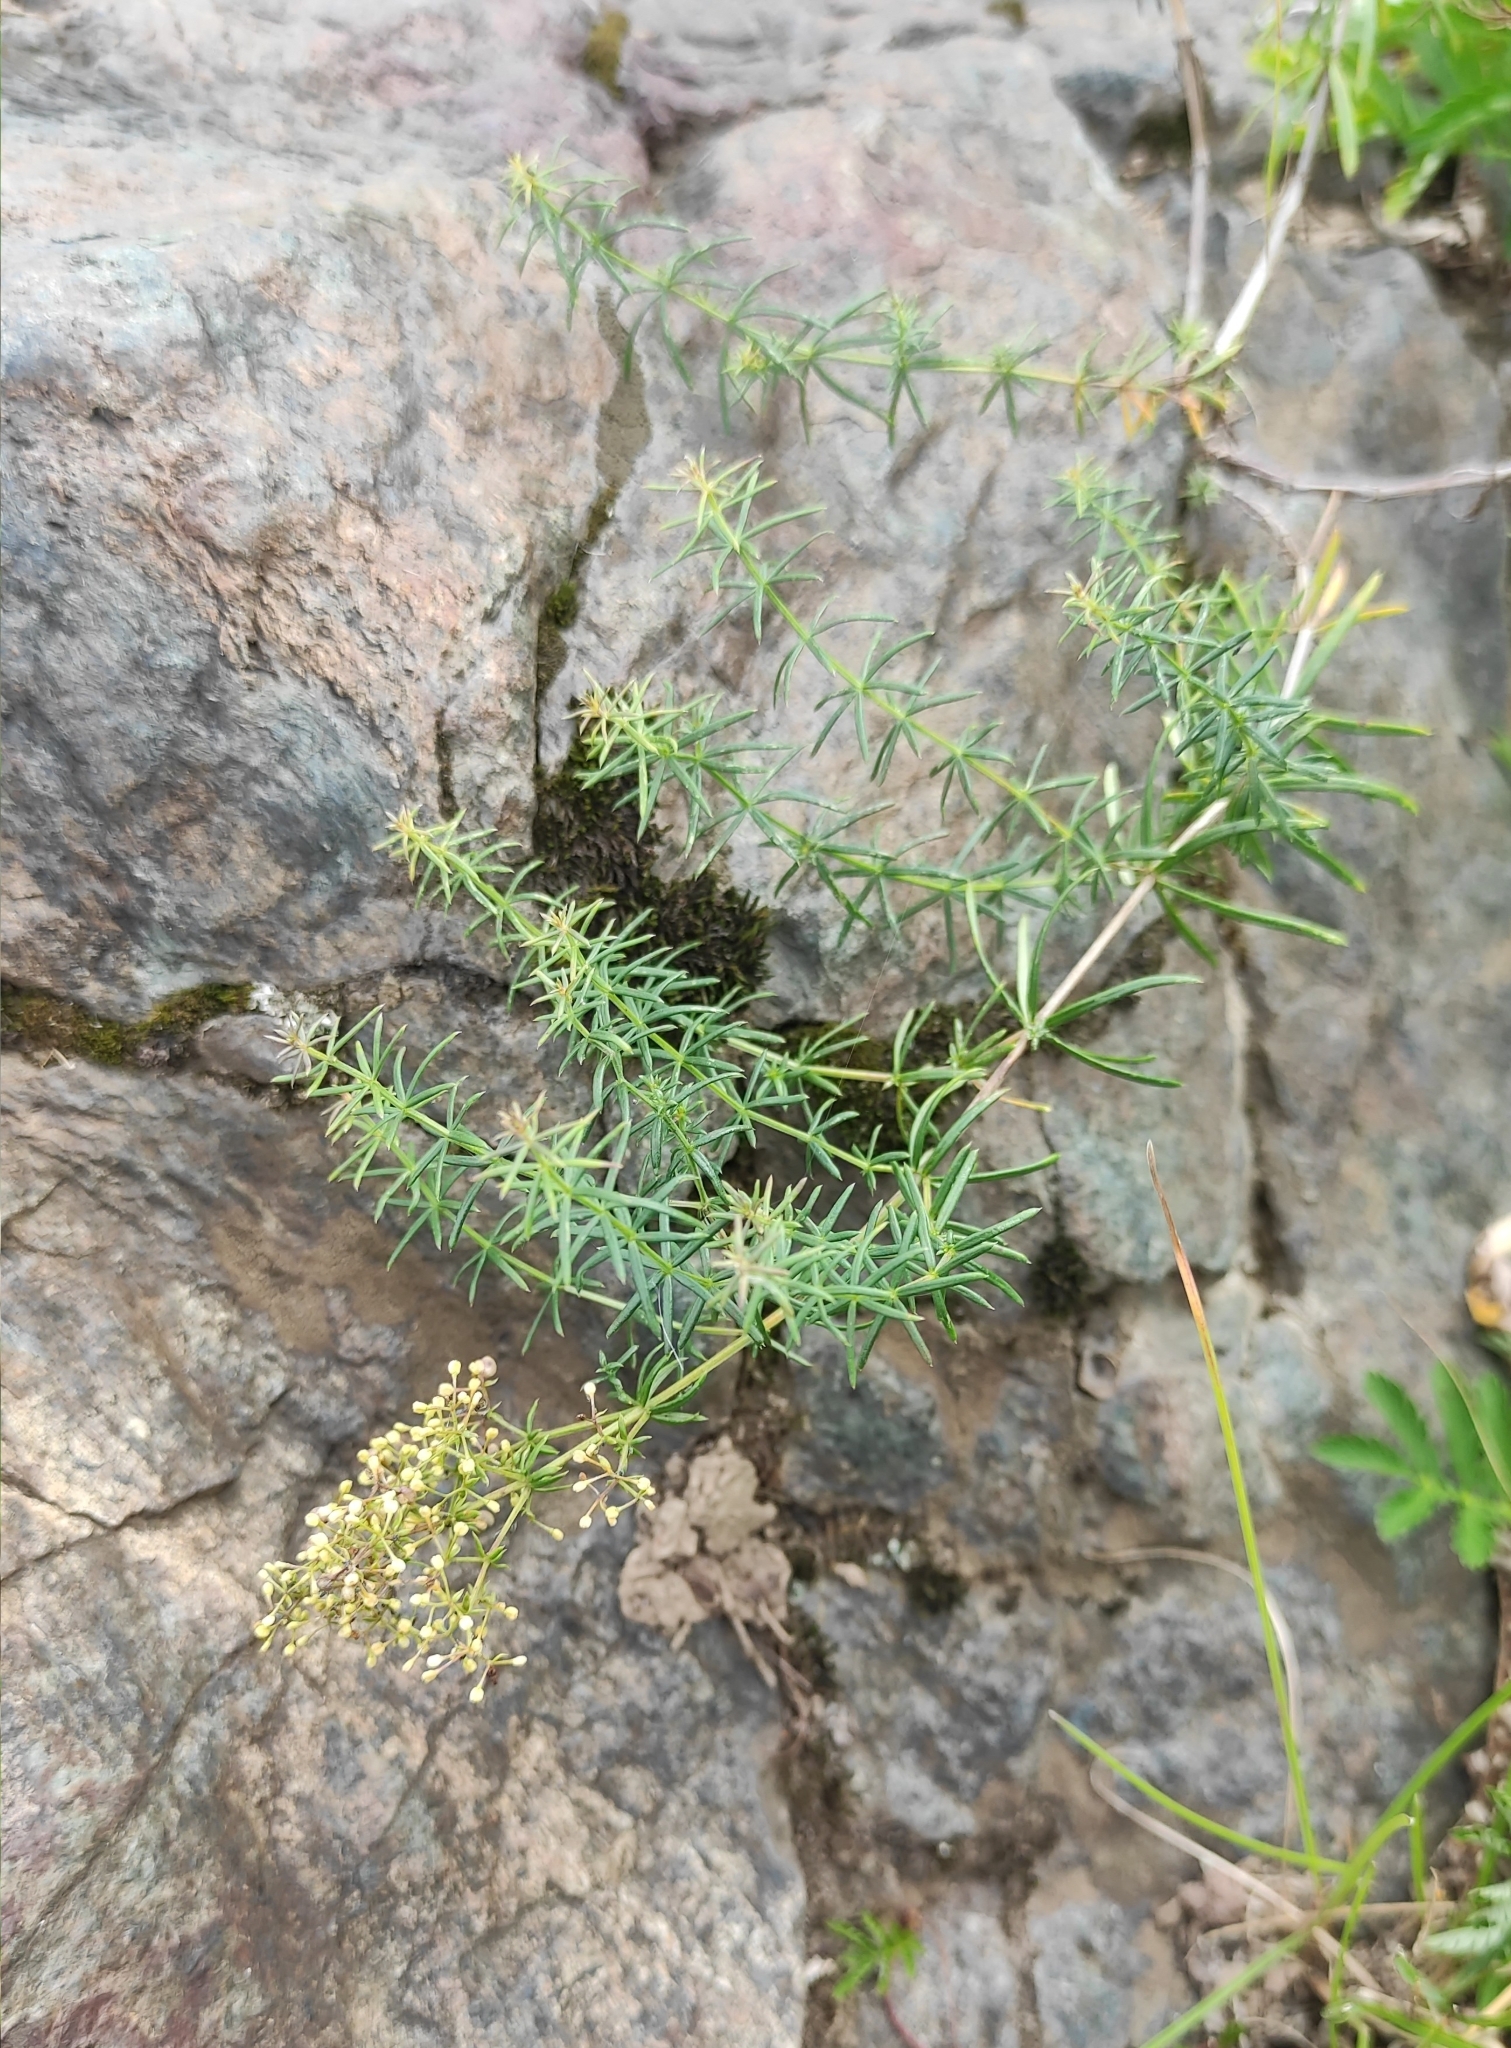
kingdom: Plantae
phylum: Tracheophyta
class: Magnoliopsida
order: Gentianales
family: Rubiaceae
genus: Galium
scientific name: Galium verum
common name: Lady's bedstraw
